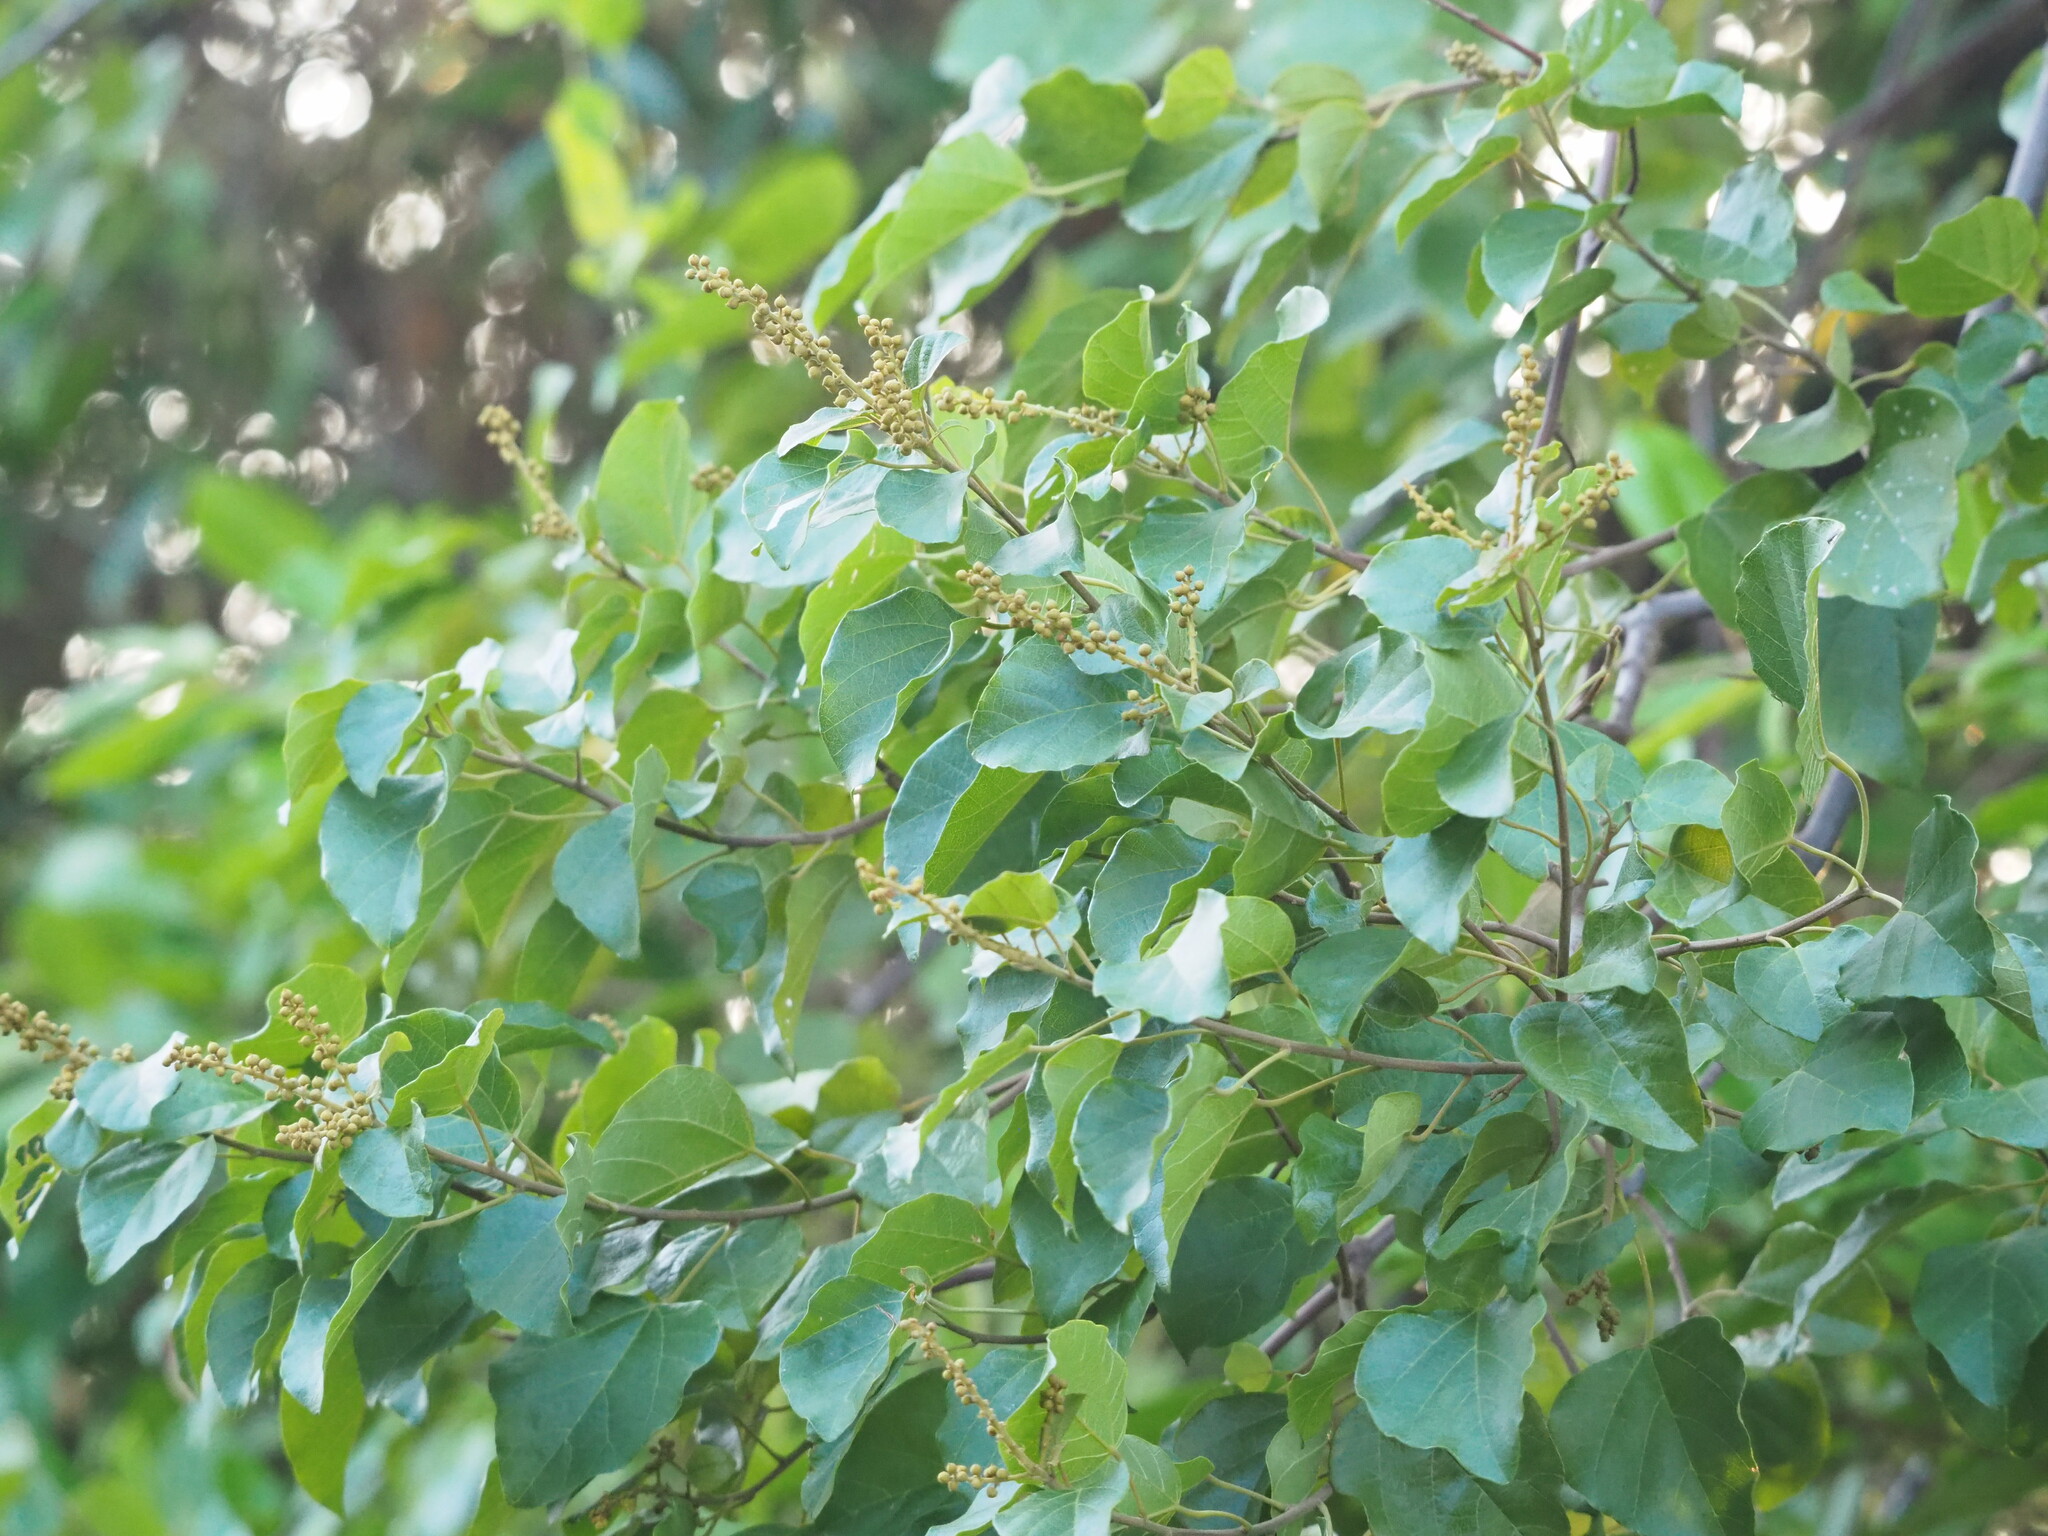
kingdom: Plantae
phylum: Tracheophyta
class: Magnoliopsida
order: Malpighiales
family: Euphorbiaceae
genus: Mallotus
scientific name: Mallotus repandus
